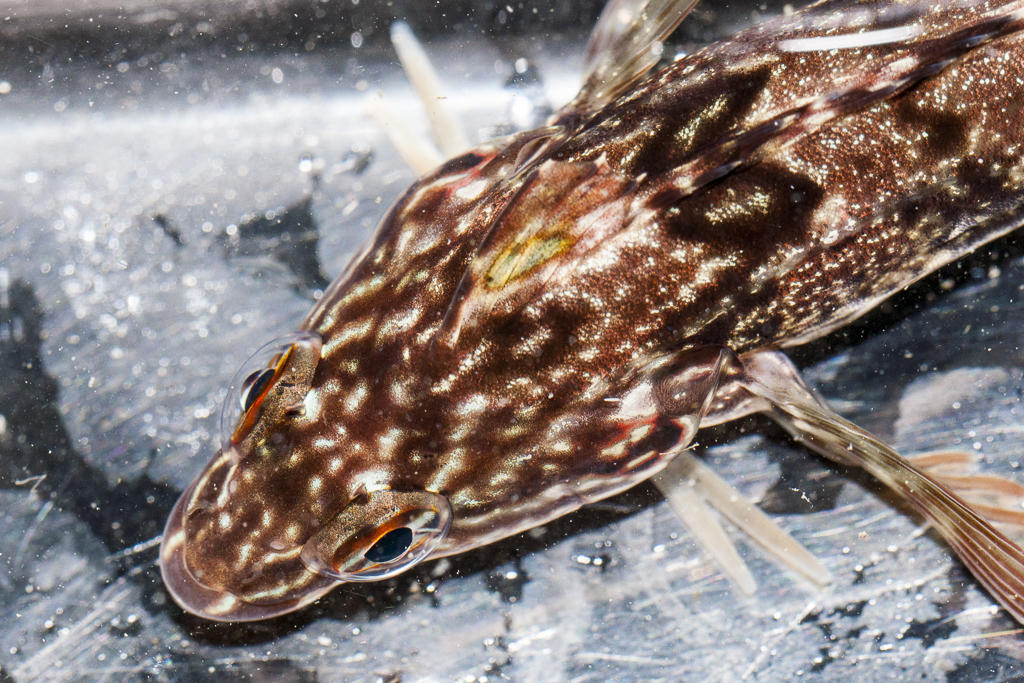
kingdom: Animalia
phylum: Chordata
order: Perciformes
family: Clinidae
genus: Clinus
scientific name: Clinus superciliosus
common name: Super klipfish
